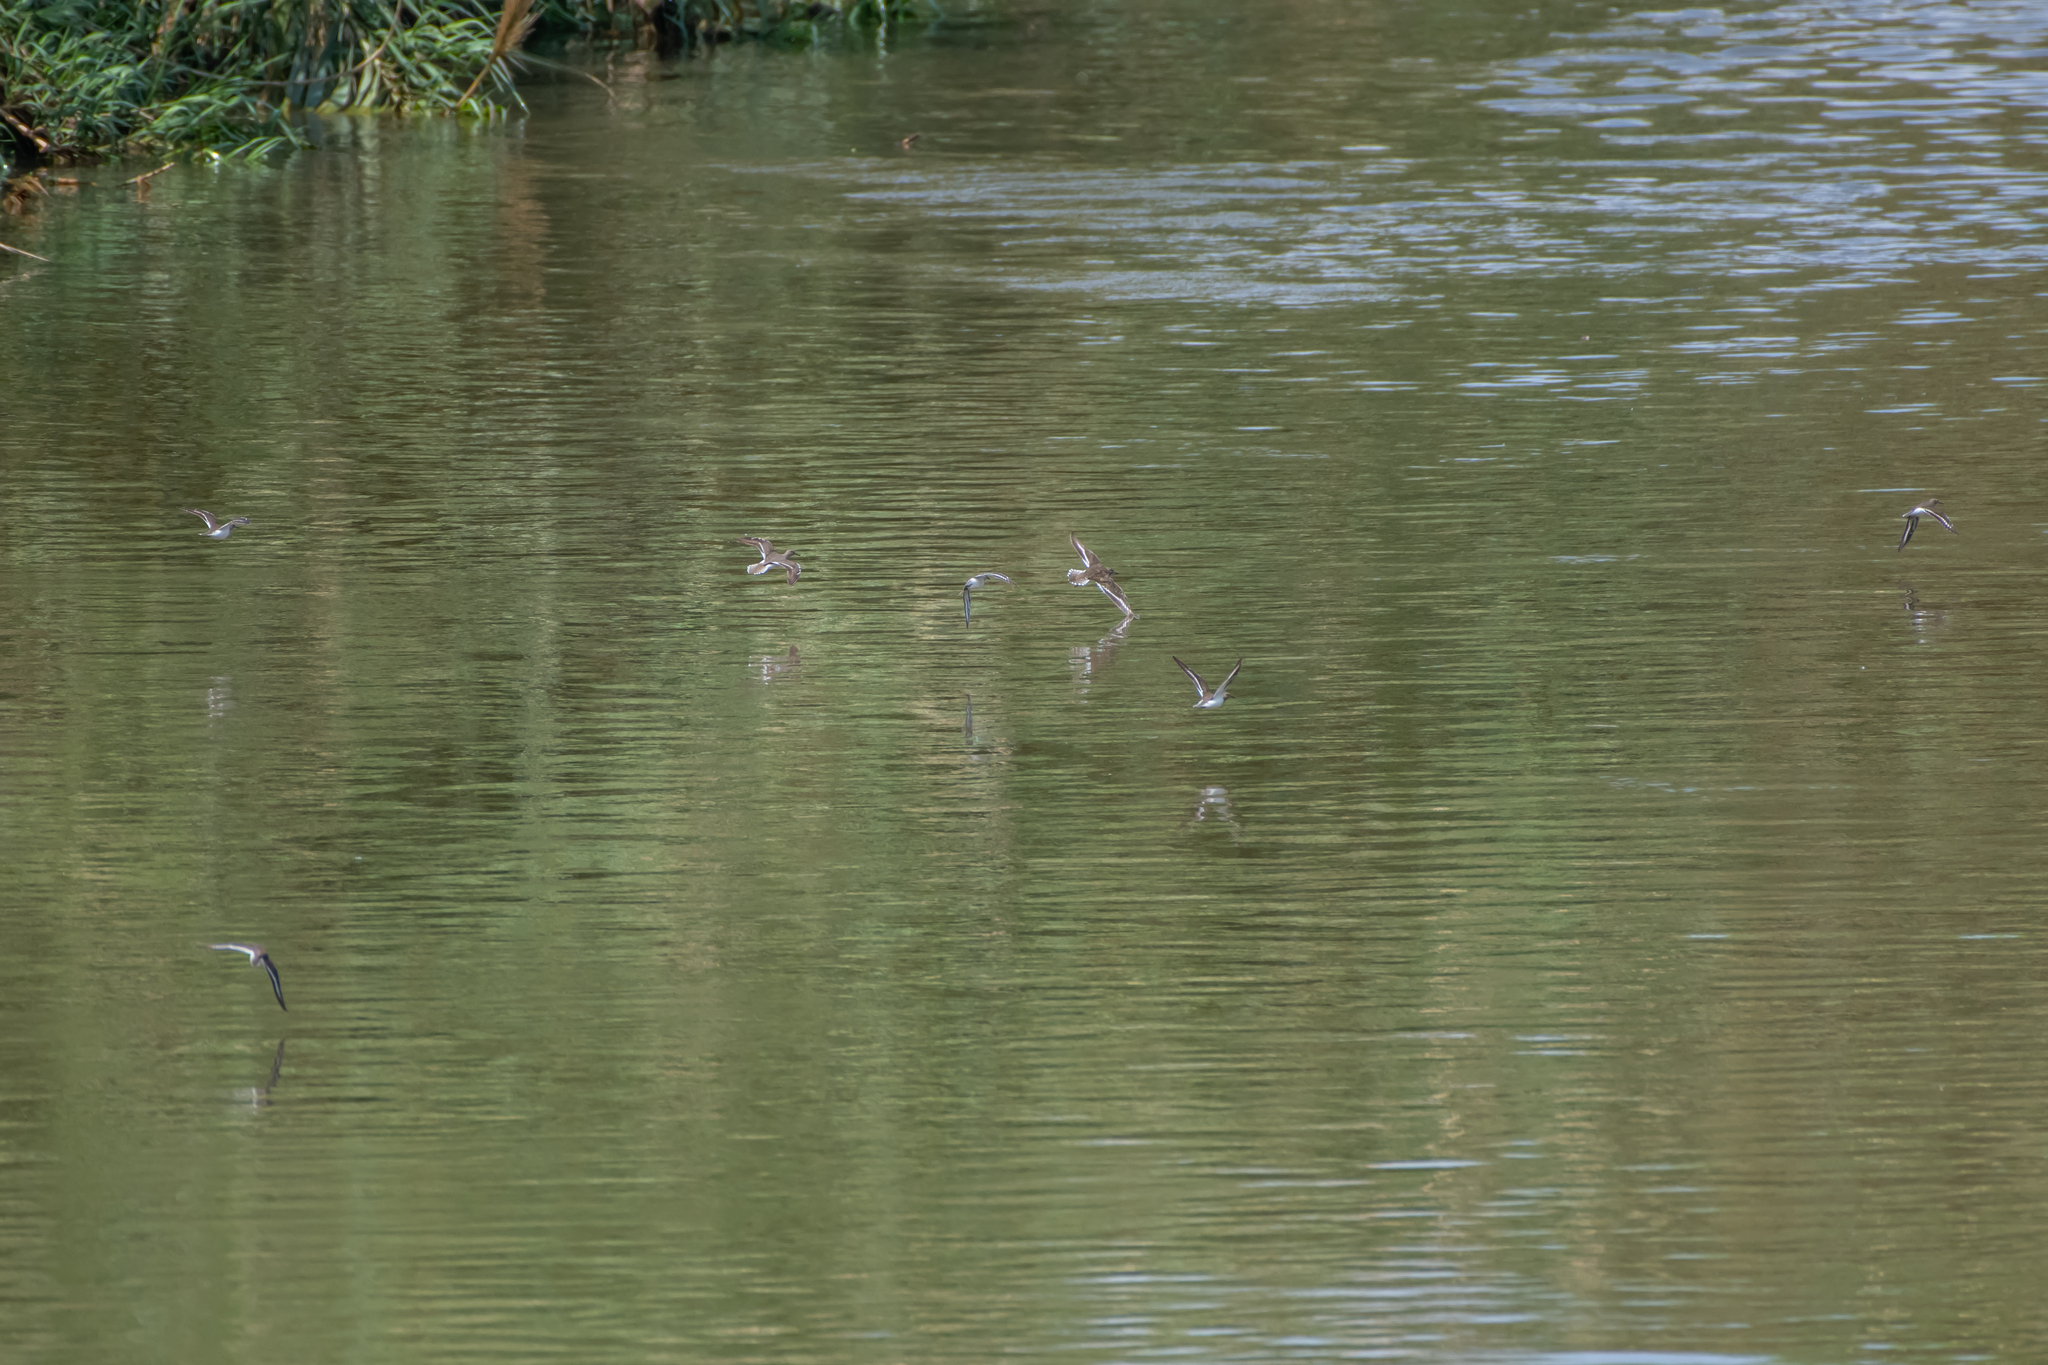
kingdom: Animalia
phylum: Chordata
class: Aves
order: Charadriiformes
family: Scolopacidae
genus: Actitis
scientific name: Actitis hypoleucos
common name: Common sandpiper
